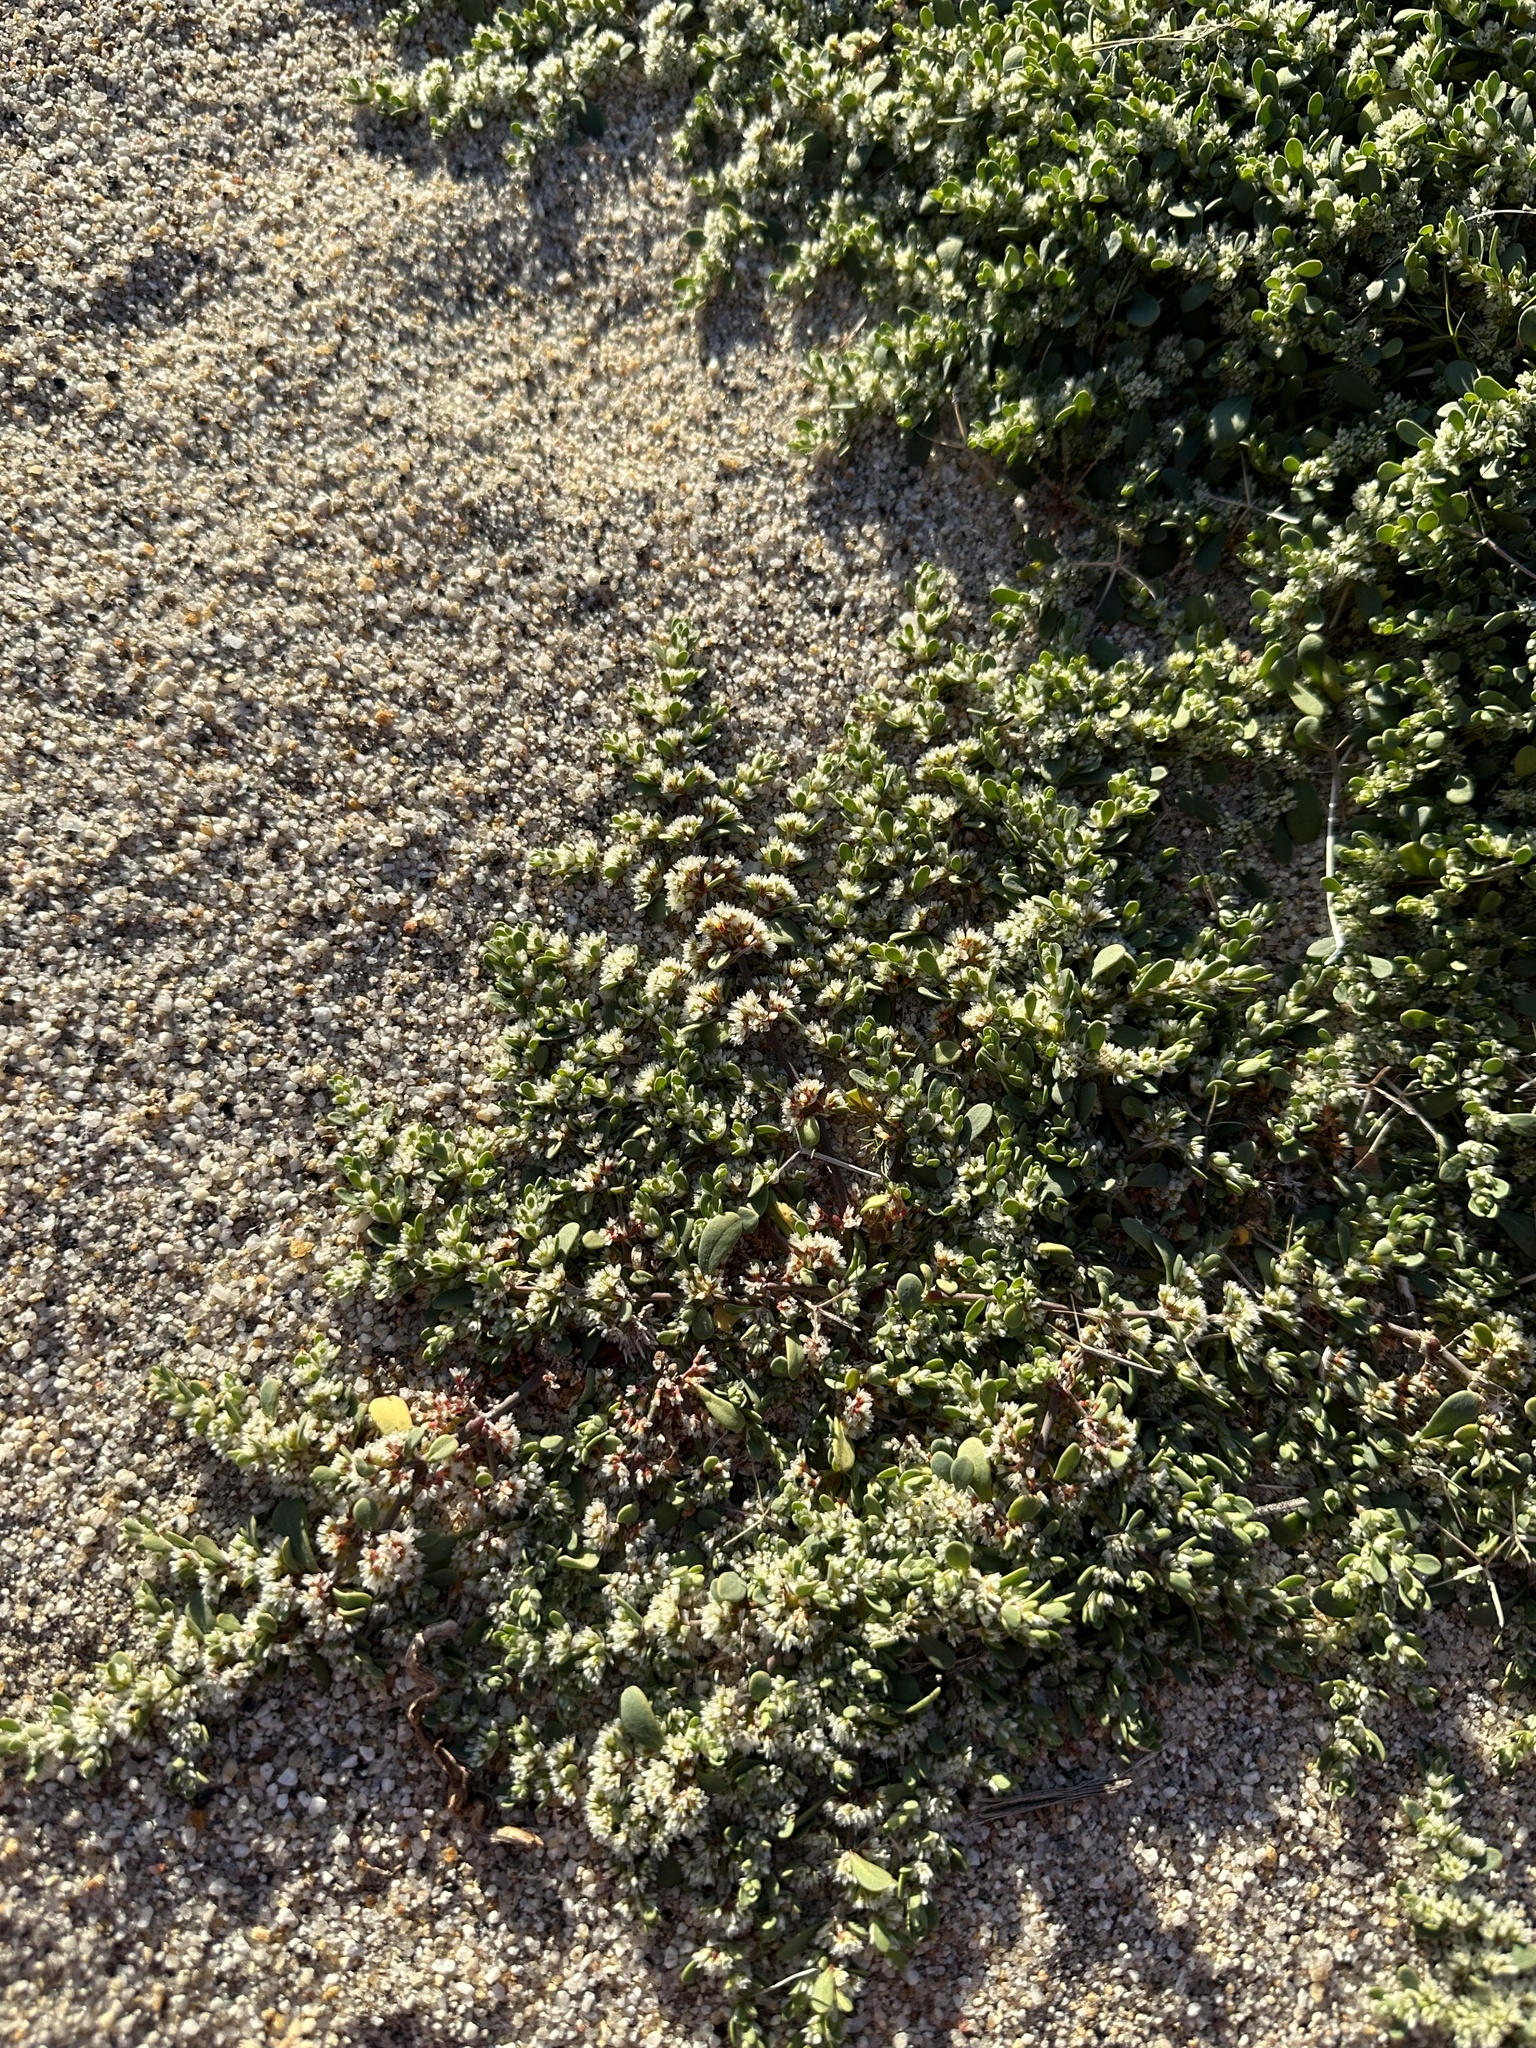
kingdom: Plantae
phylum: Tracheophyta
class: Magnoliopsida
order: Caryophyllales
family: Caryophyllaceae
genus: Achyronychia
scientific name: Achyronychia cooperi
